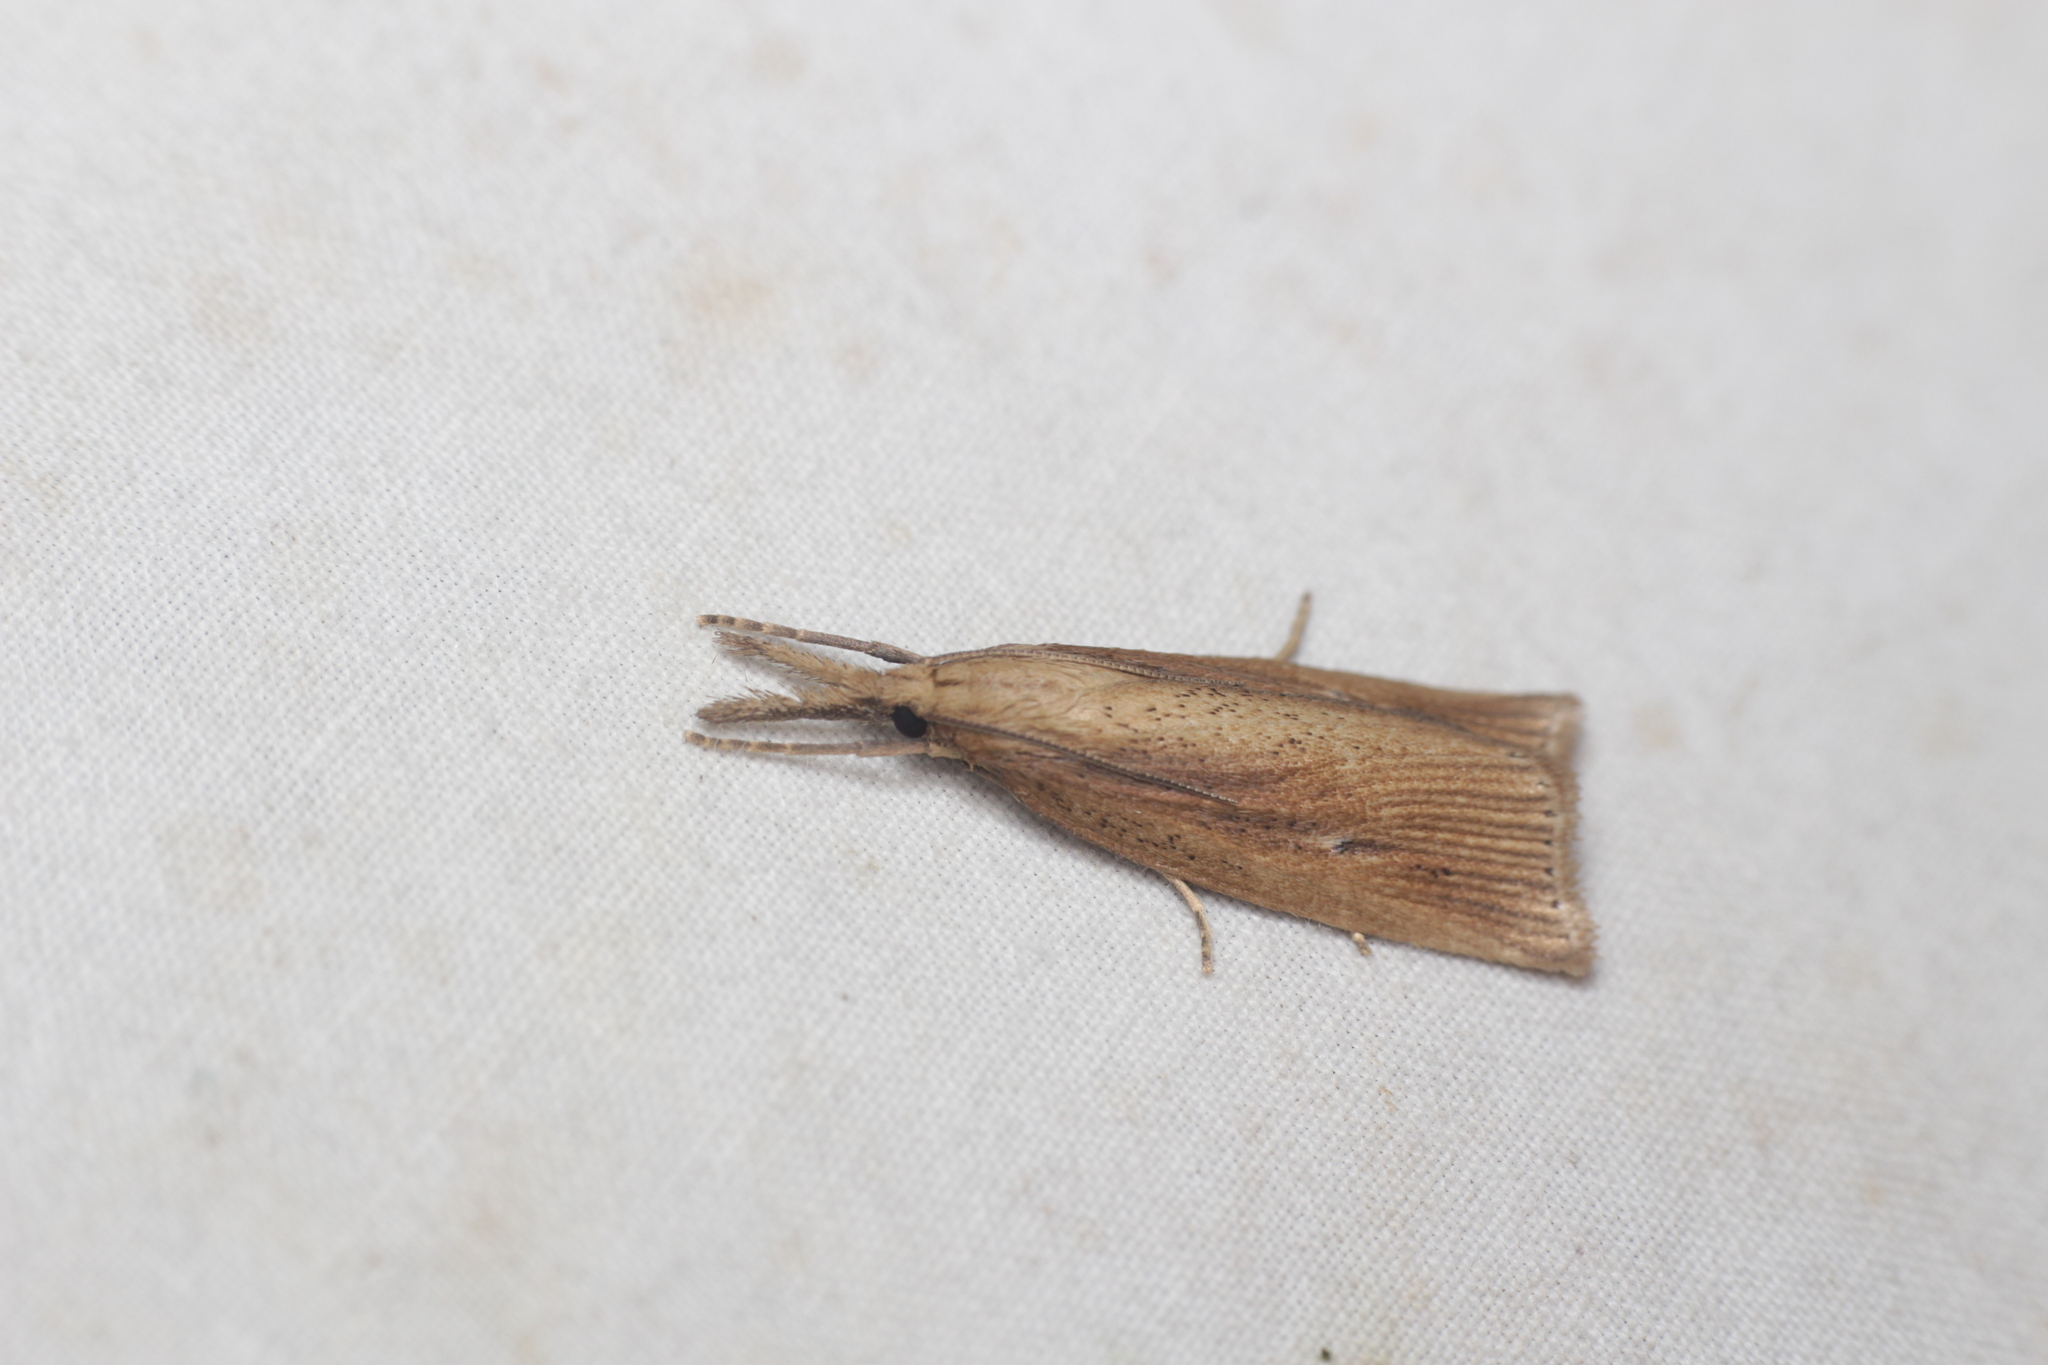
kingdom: Animalia
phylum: Arthropoda
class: Insecta
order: Lepidoptera
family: Crambidae
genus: Chilo
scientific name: Chilo phragmitella
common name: Reed veneer
